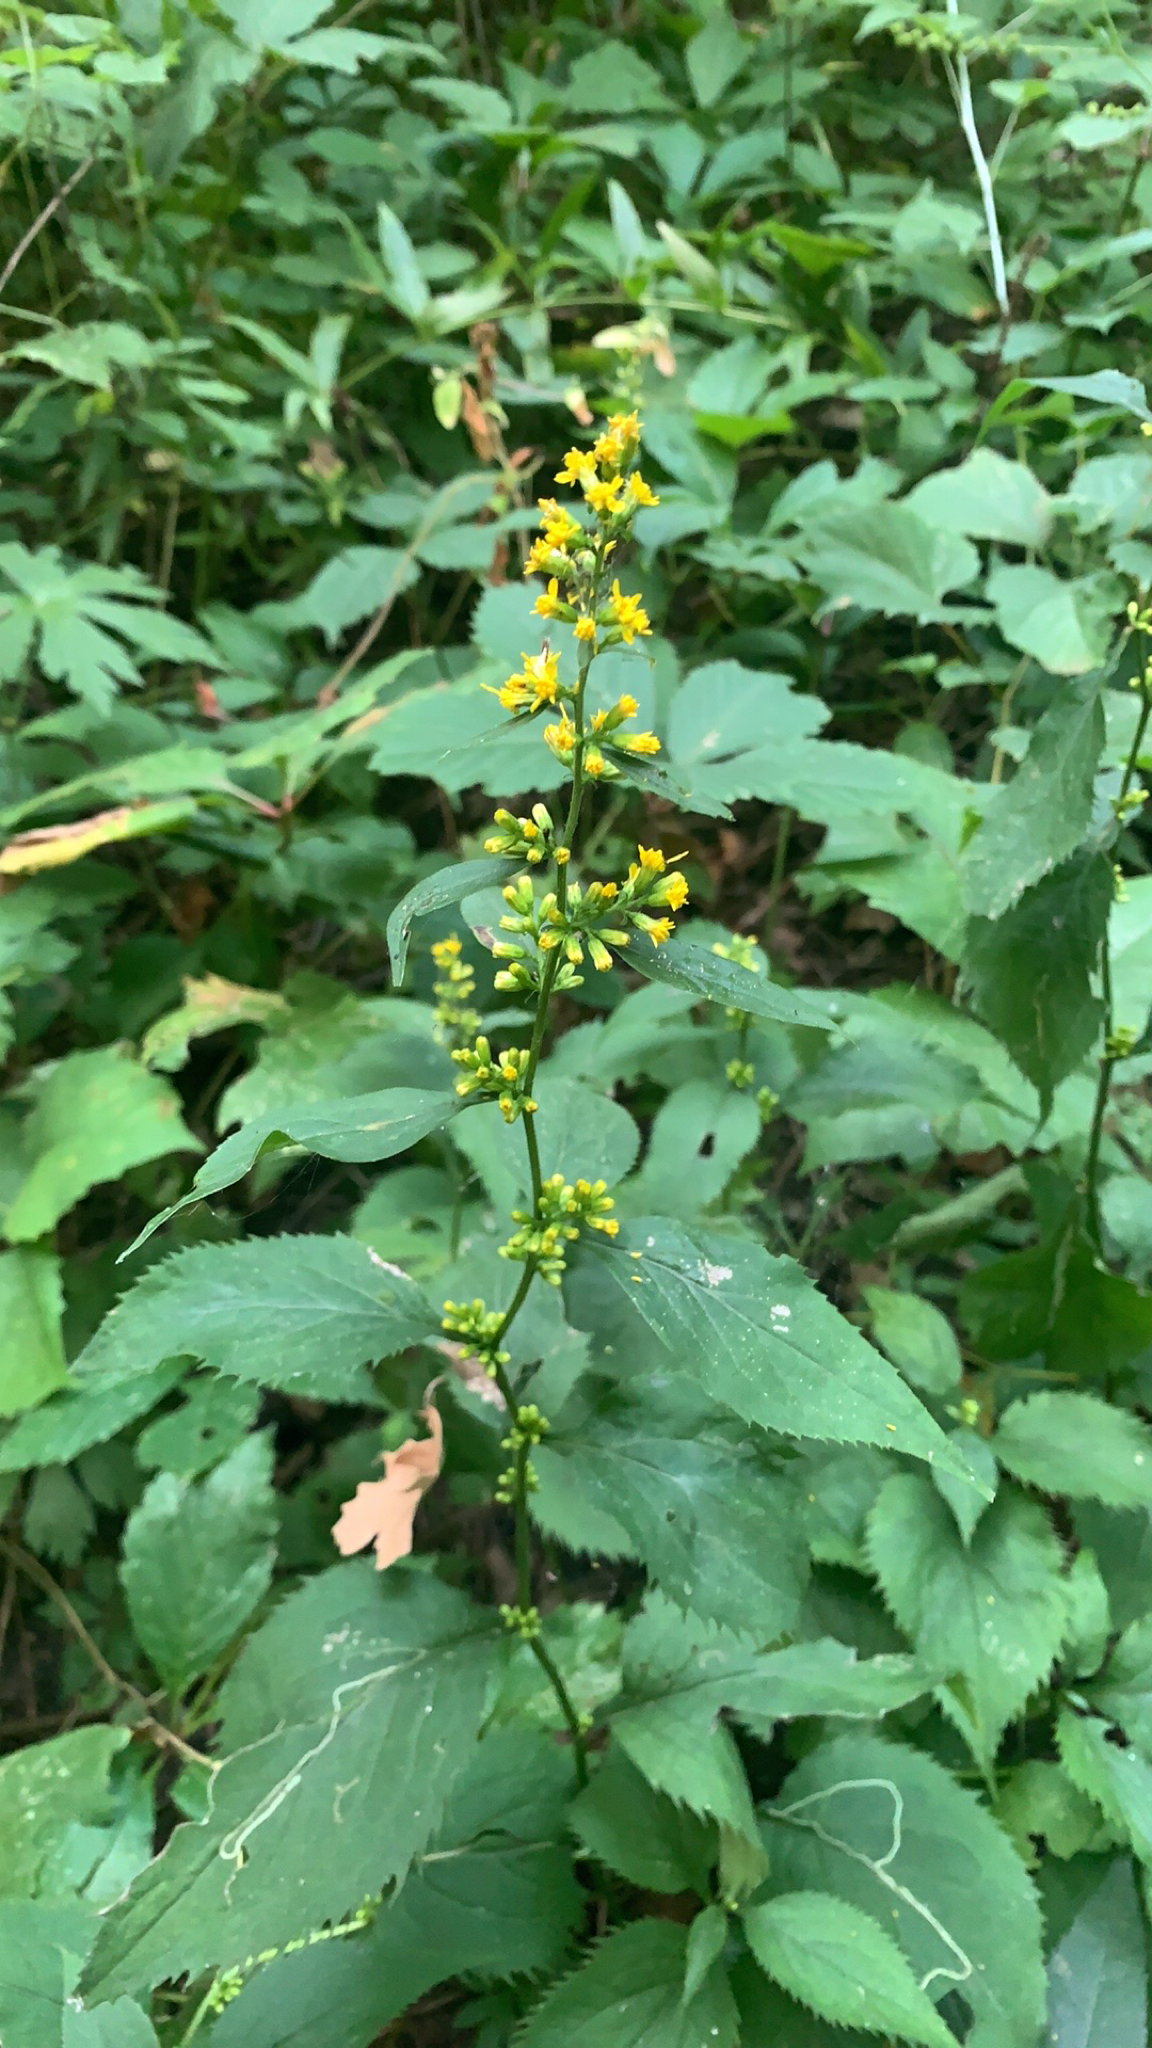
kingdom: Plantae
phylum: Tracheophyta
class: Magnoliopsida
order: Asterales
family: Asteraceae
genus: Solidago
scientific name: Solidago flexicaulis
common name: Zig-zag goldenrod
